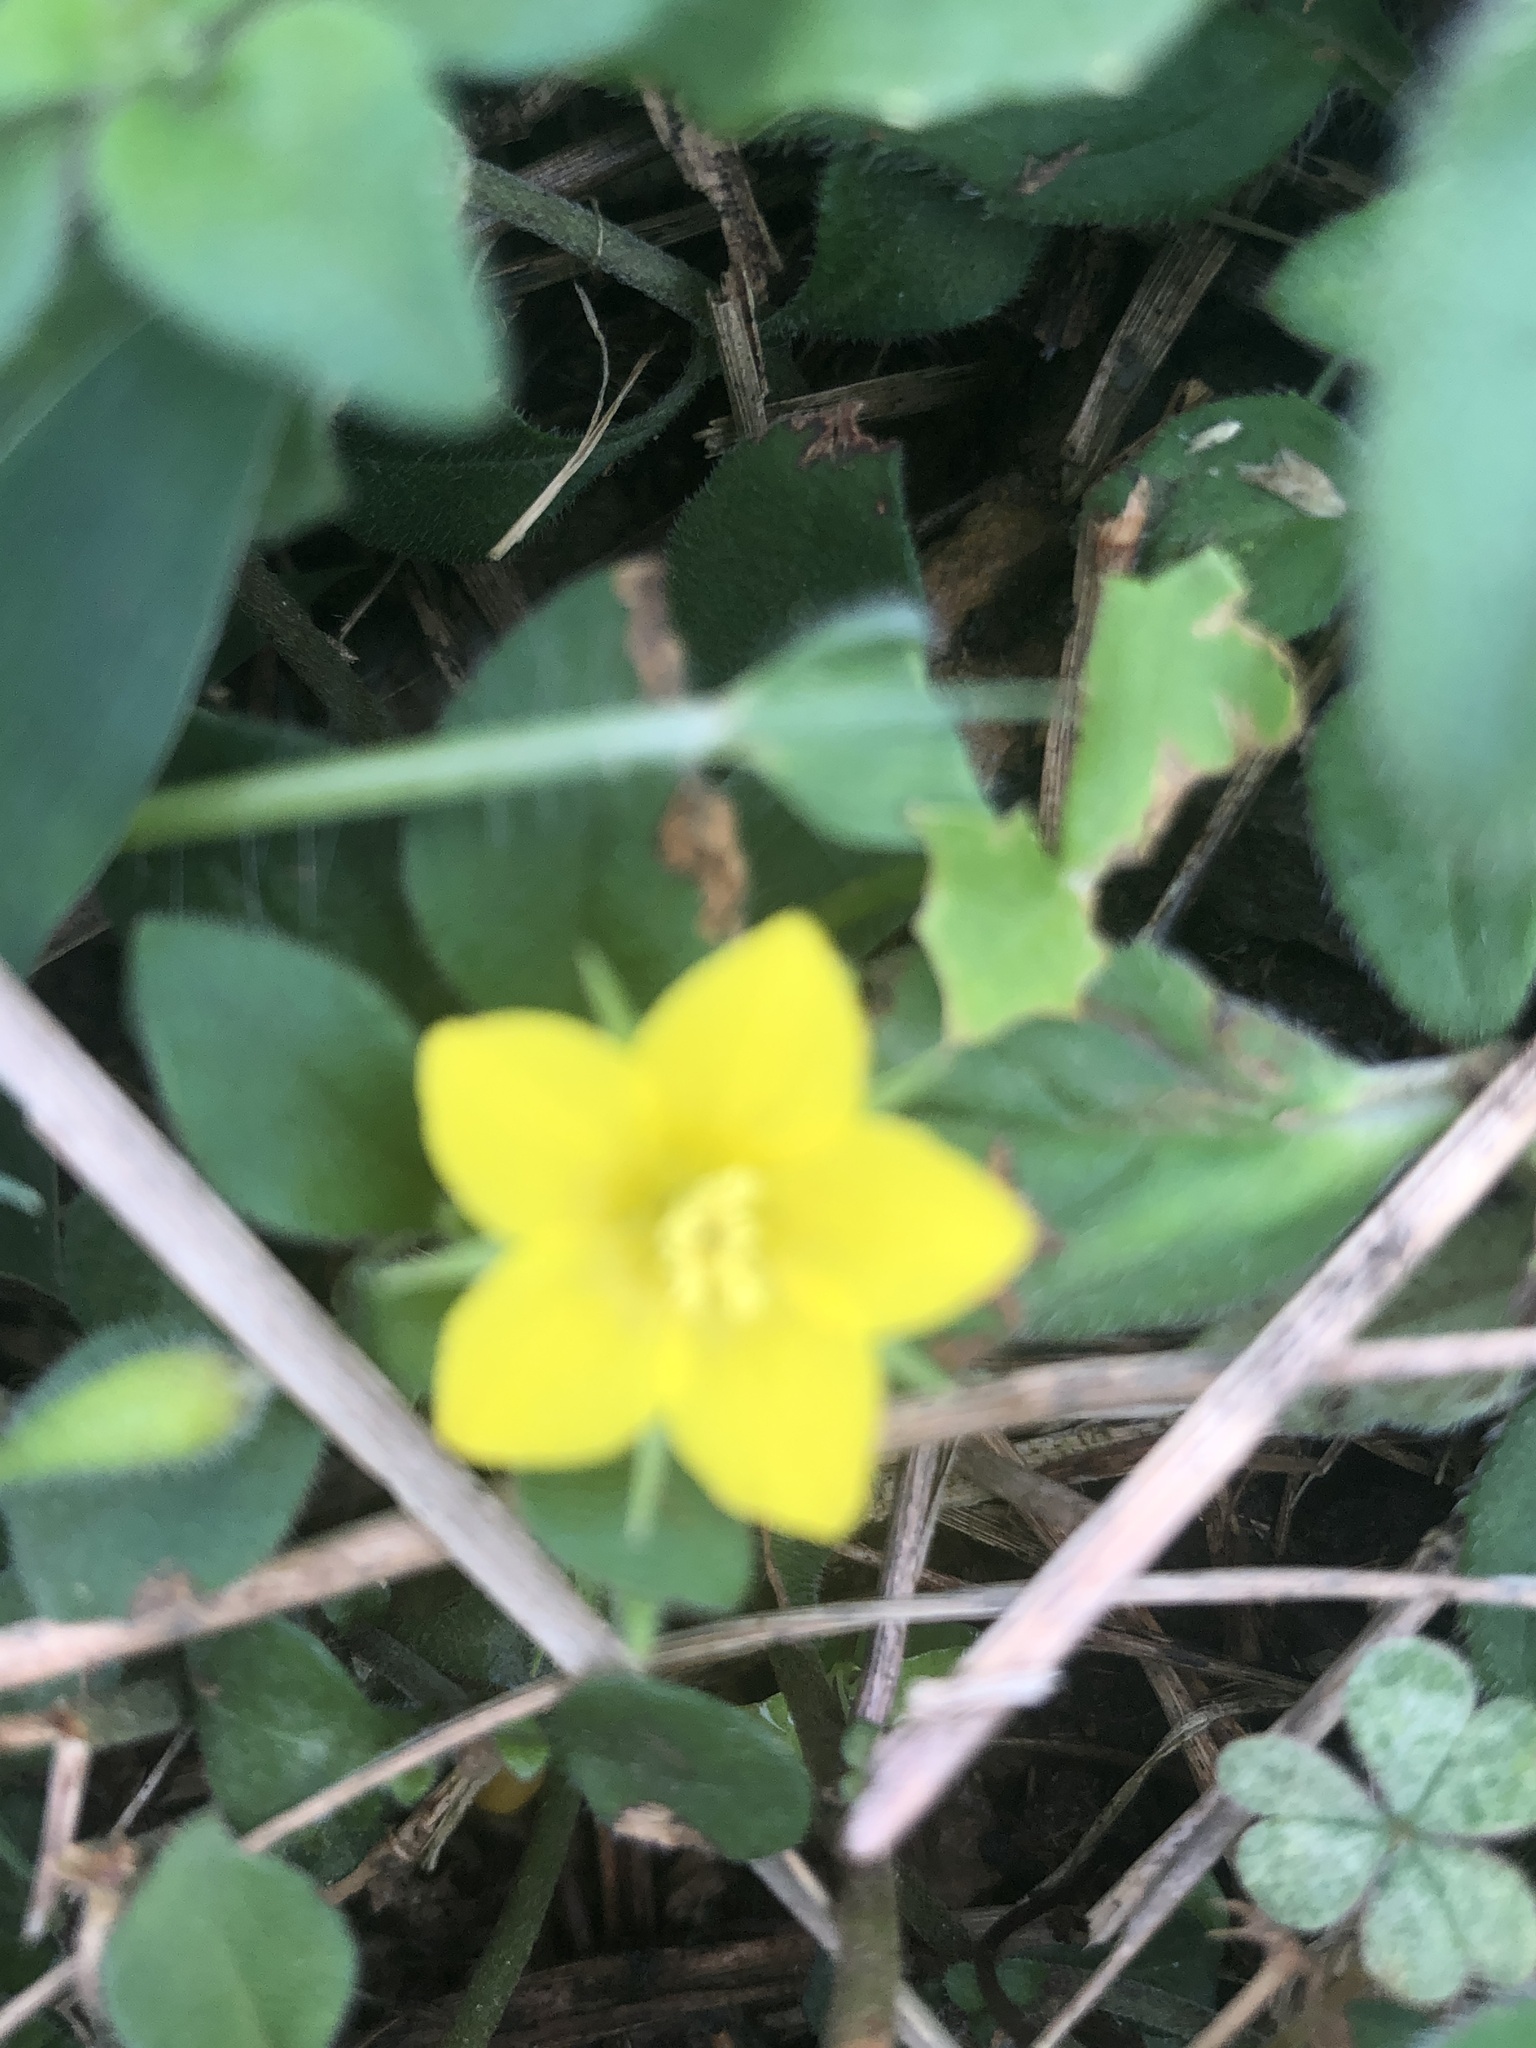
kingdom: Plantae
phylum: Tracheophyta
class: Magnoliopsida
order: Ericales
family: Primulaceae
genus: Lysimachia
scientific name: Lysimachia remota
